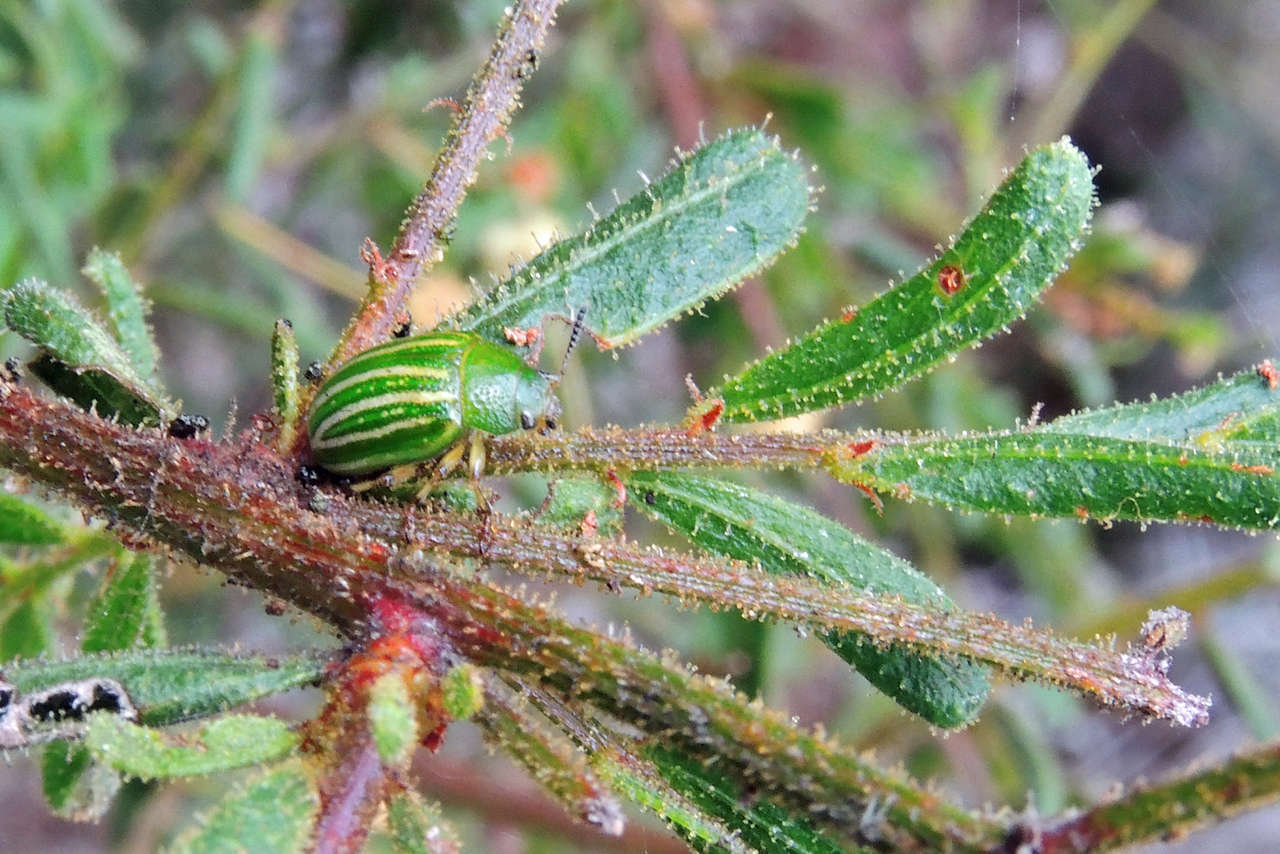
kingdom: Plantae
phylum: Tracheophyta
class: Magnoliopsida
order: Fabales
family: Fabaceae
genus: Acacia
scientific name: Acacia aspera
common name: Rough wattle
